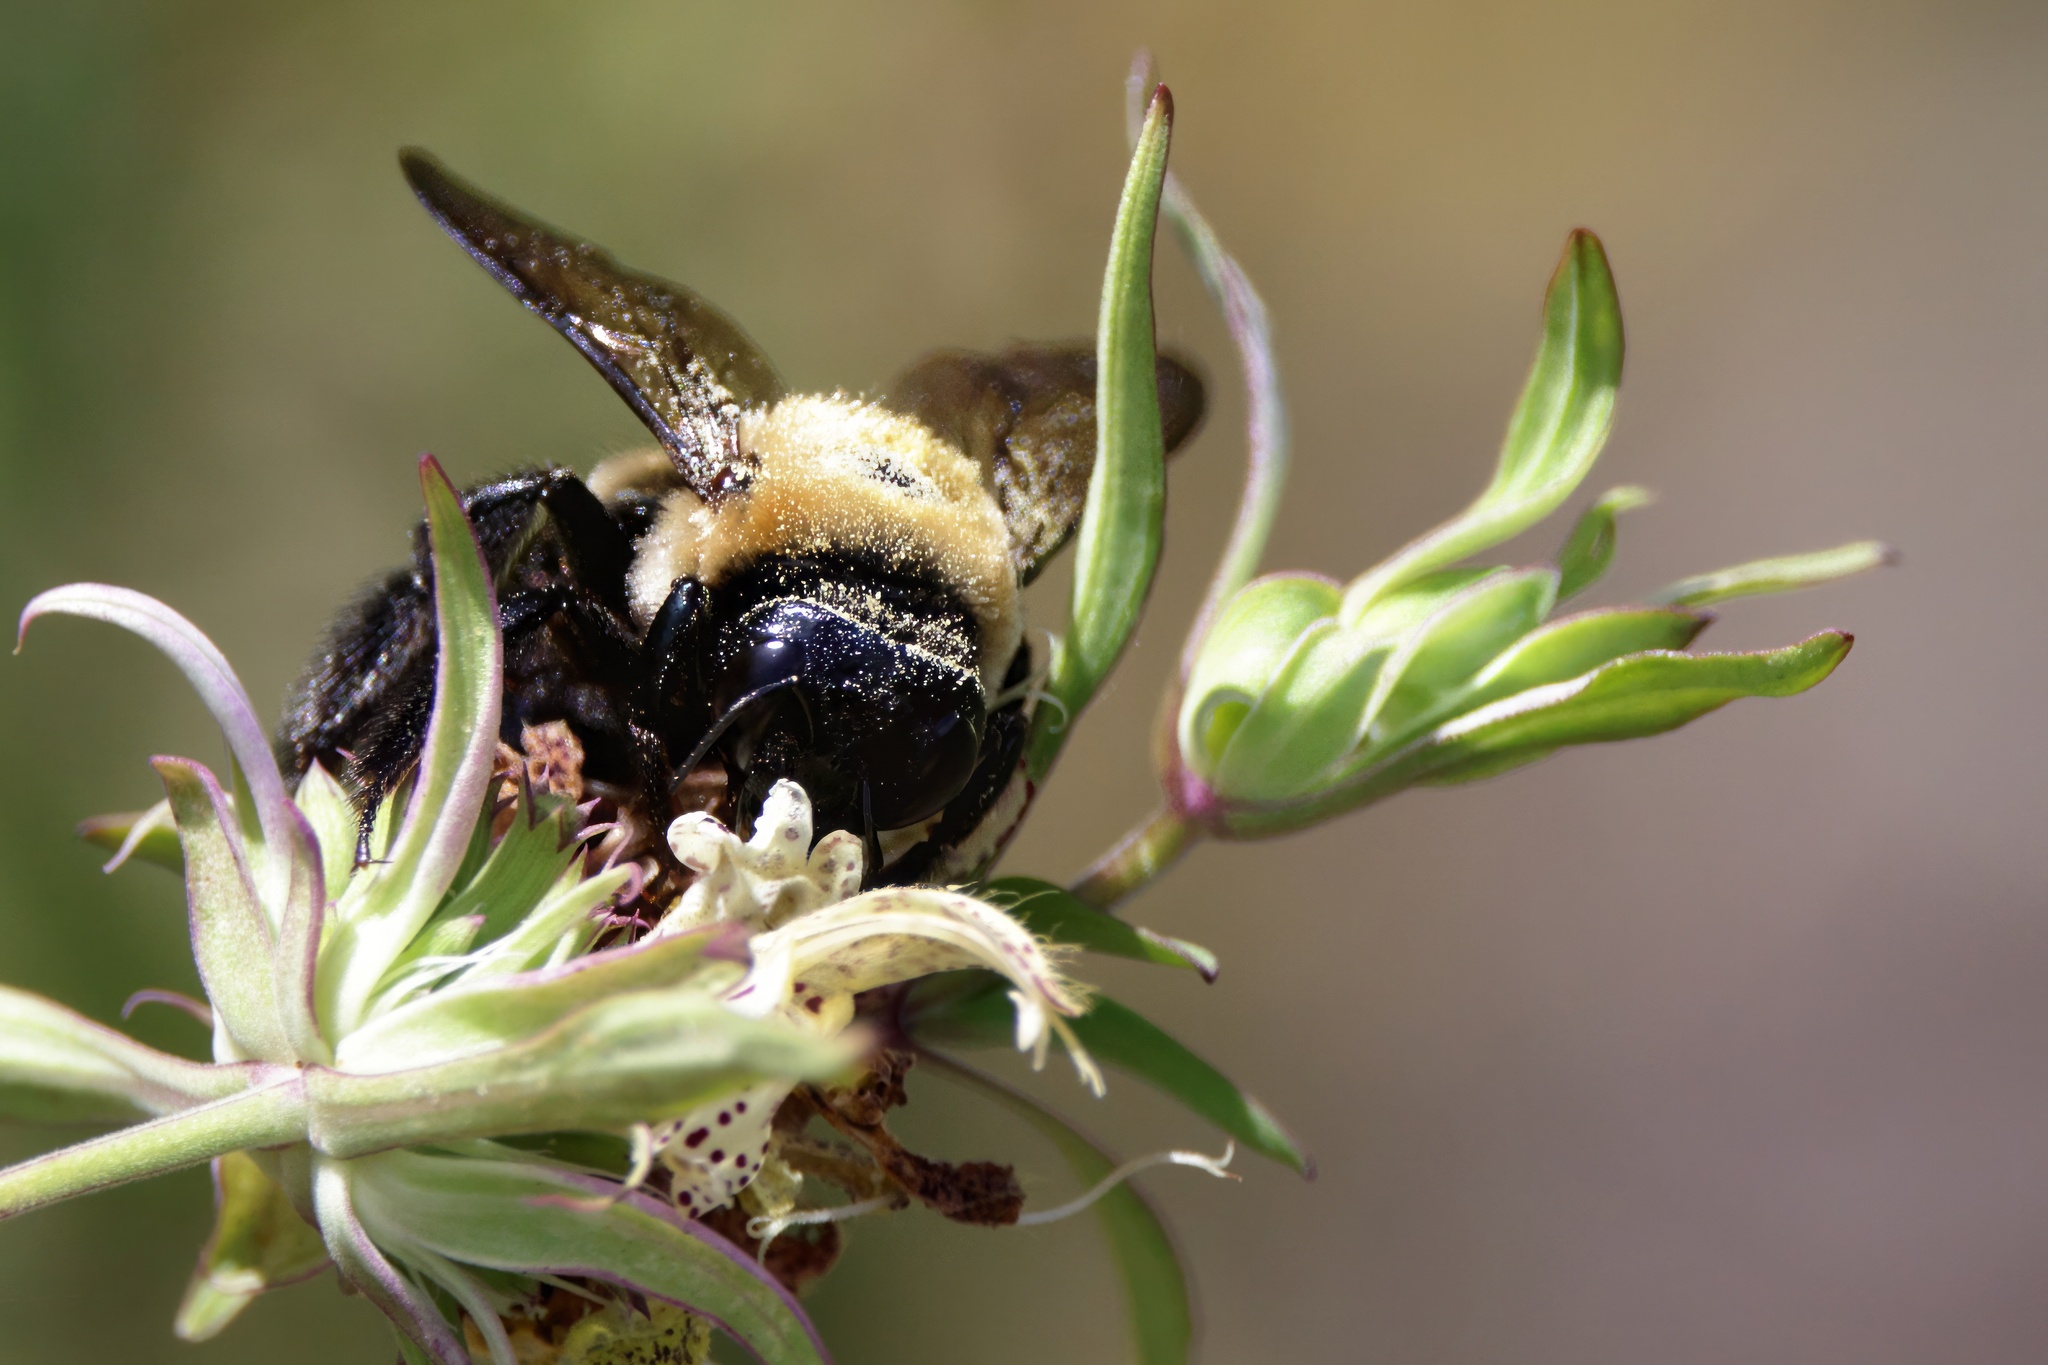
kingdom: Animalia
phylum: Arthropoda
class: Insecta
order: Hymenoptera
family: Apidae
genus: Xylocopa
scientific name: Xylocopa virginica
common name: Carpenter bee
